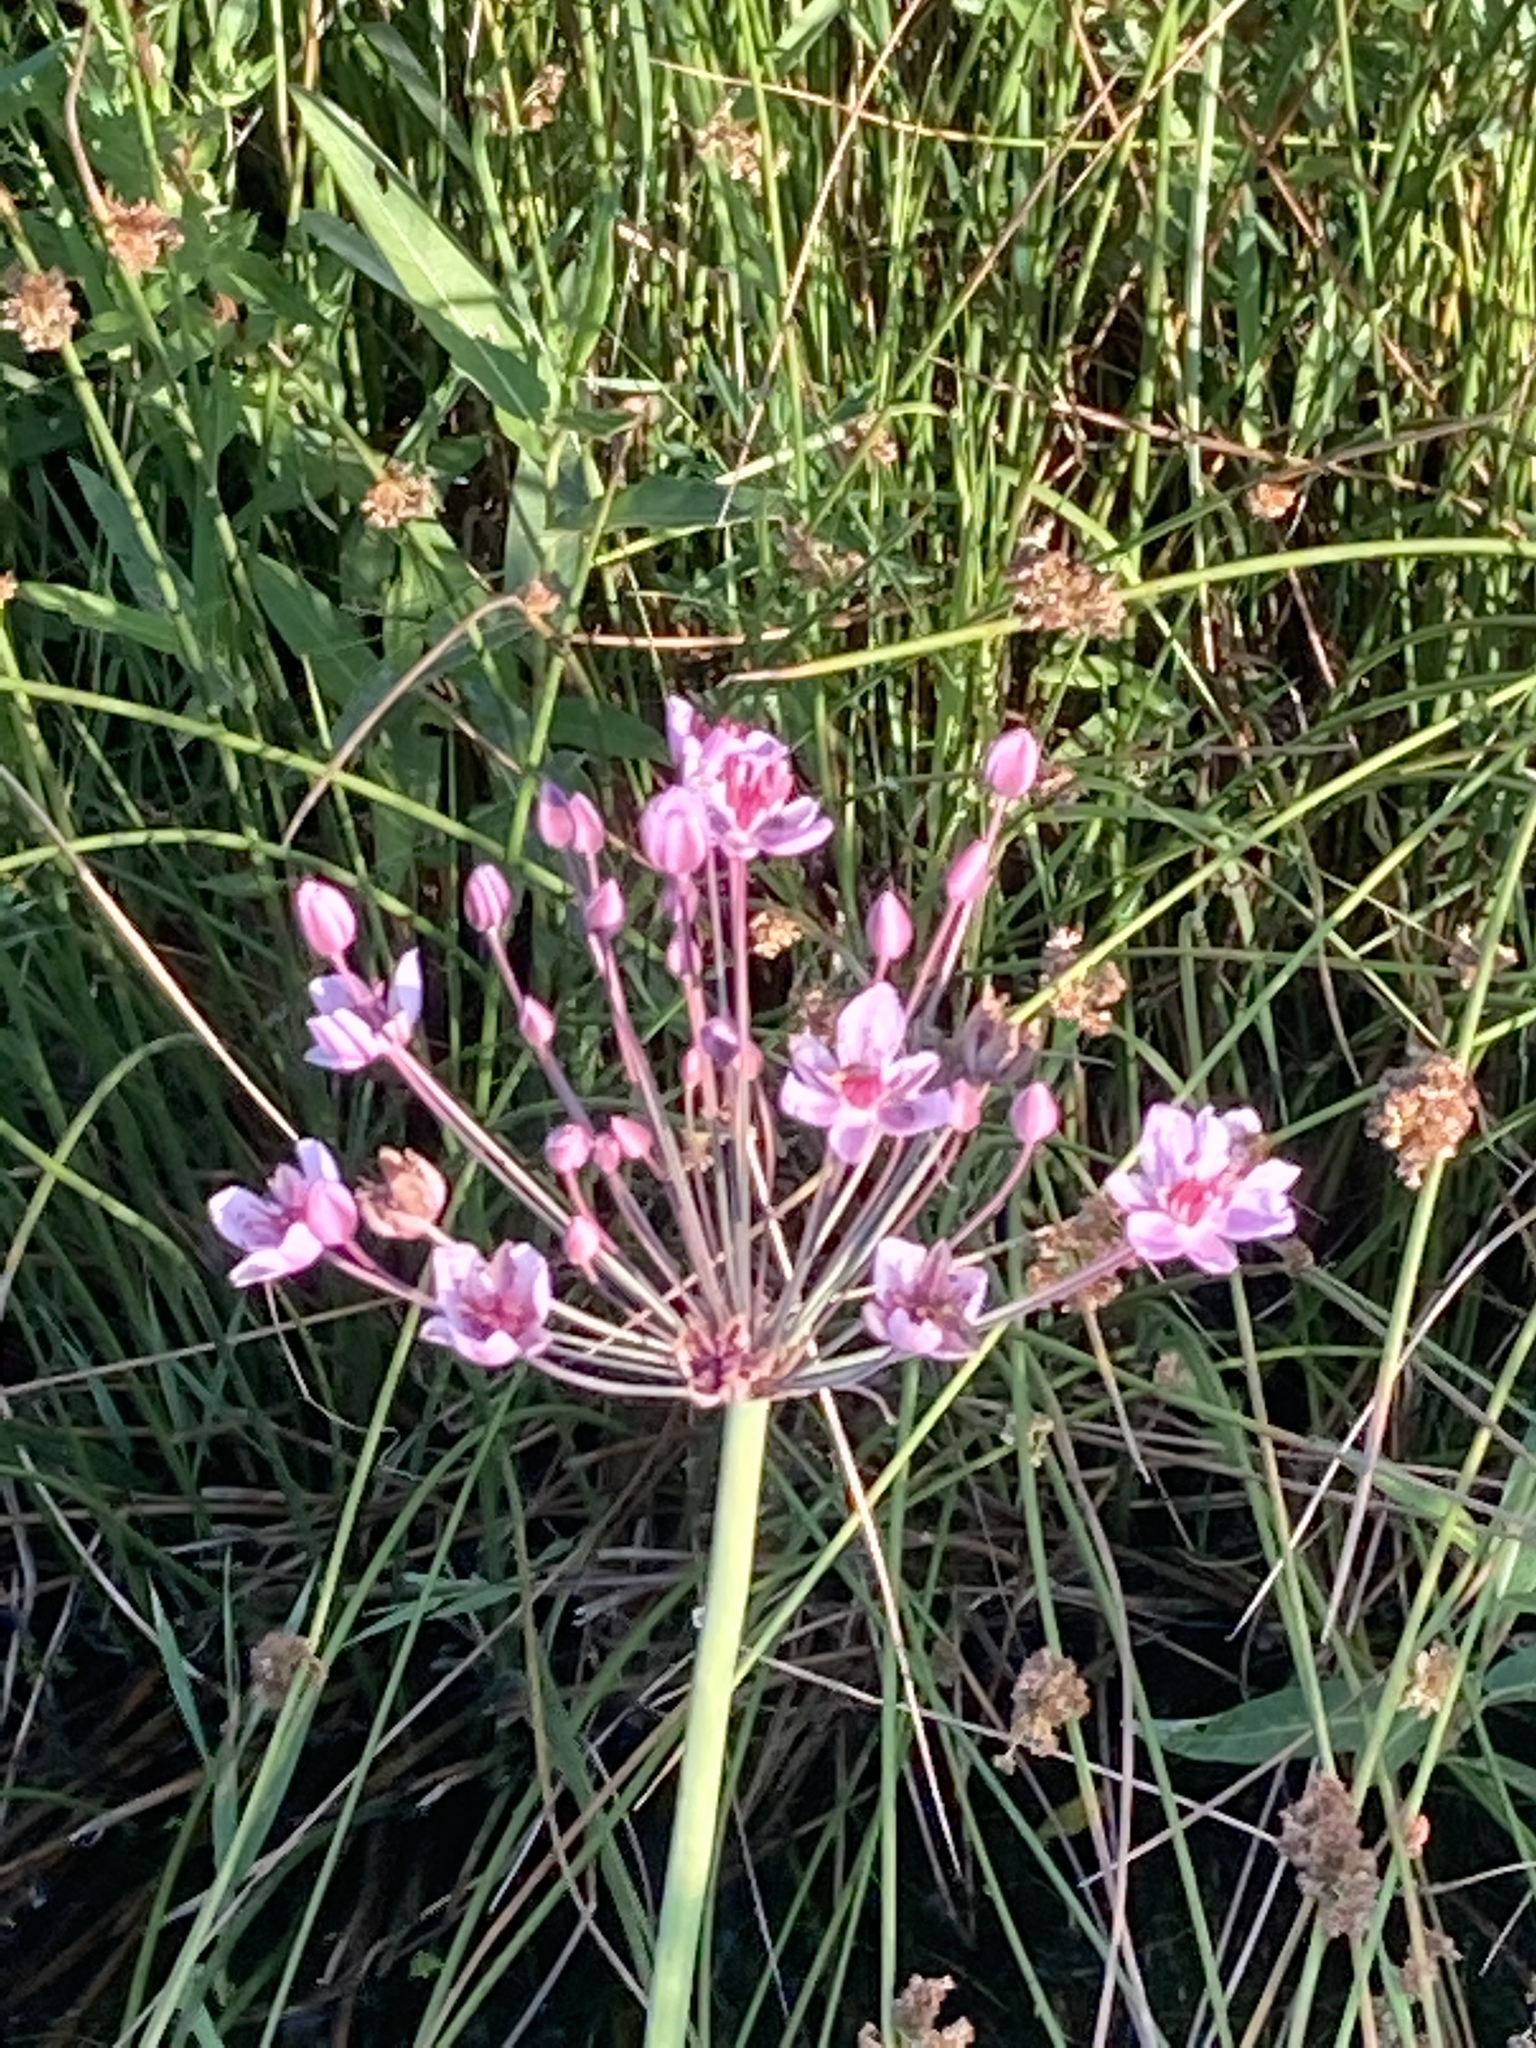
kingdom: Plantae
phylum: Tracheophyta
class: Liliopsida
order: Alismatales
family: Butomaceae
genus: Butomus
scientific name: Butomus umbellatus
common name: Flowering-rush
